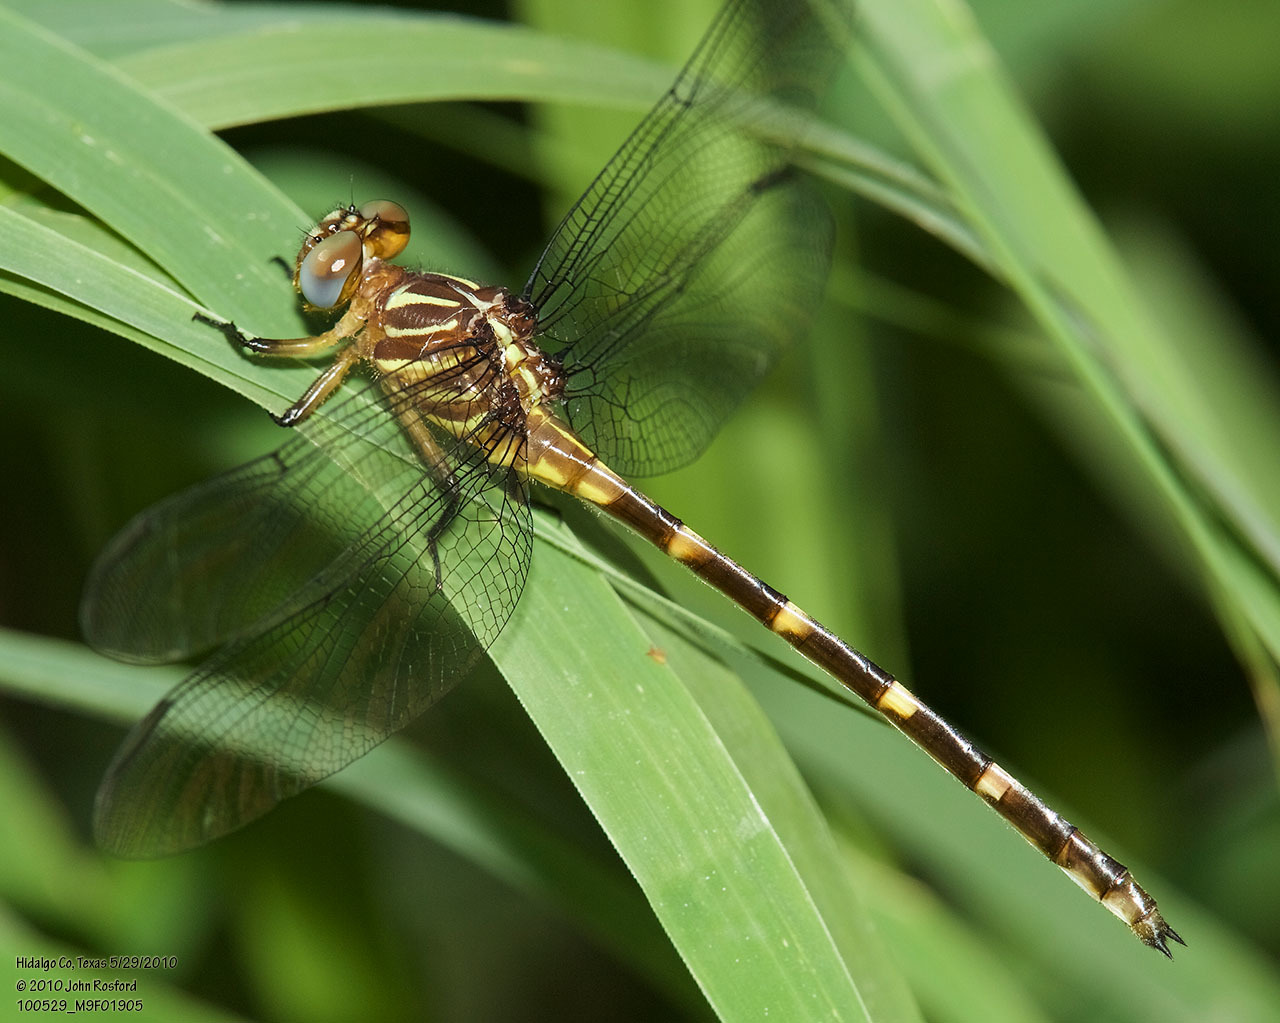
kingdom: Animalia
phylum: Arthropoda
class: Insecta
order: Odonata
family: Gomphidae
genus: Phyllocycla
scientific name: Phyllocycla breviphylla
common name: Ringed forceptail
